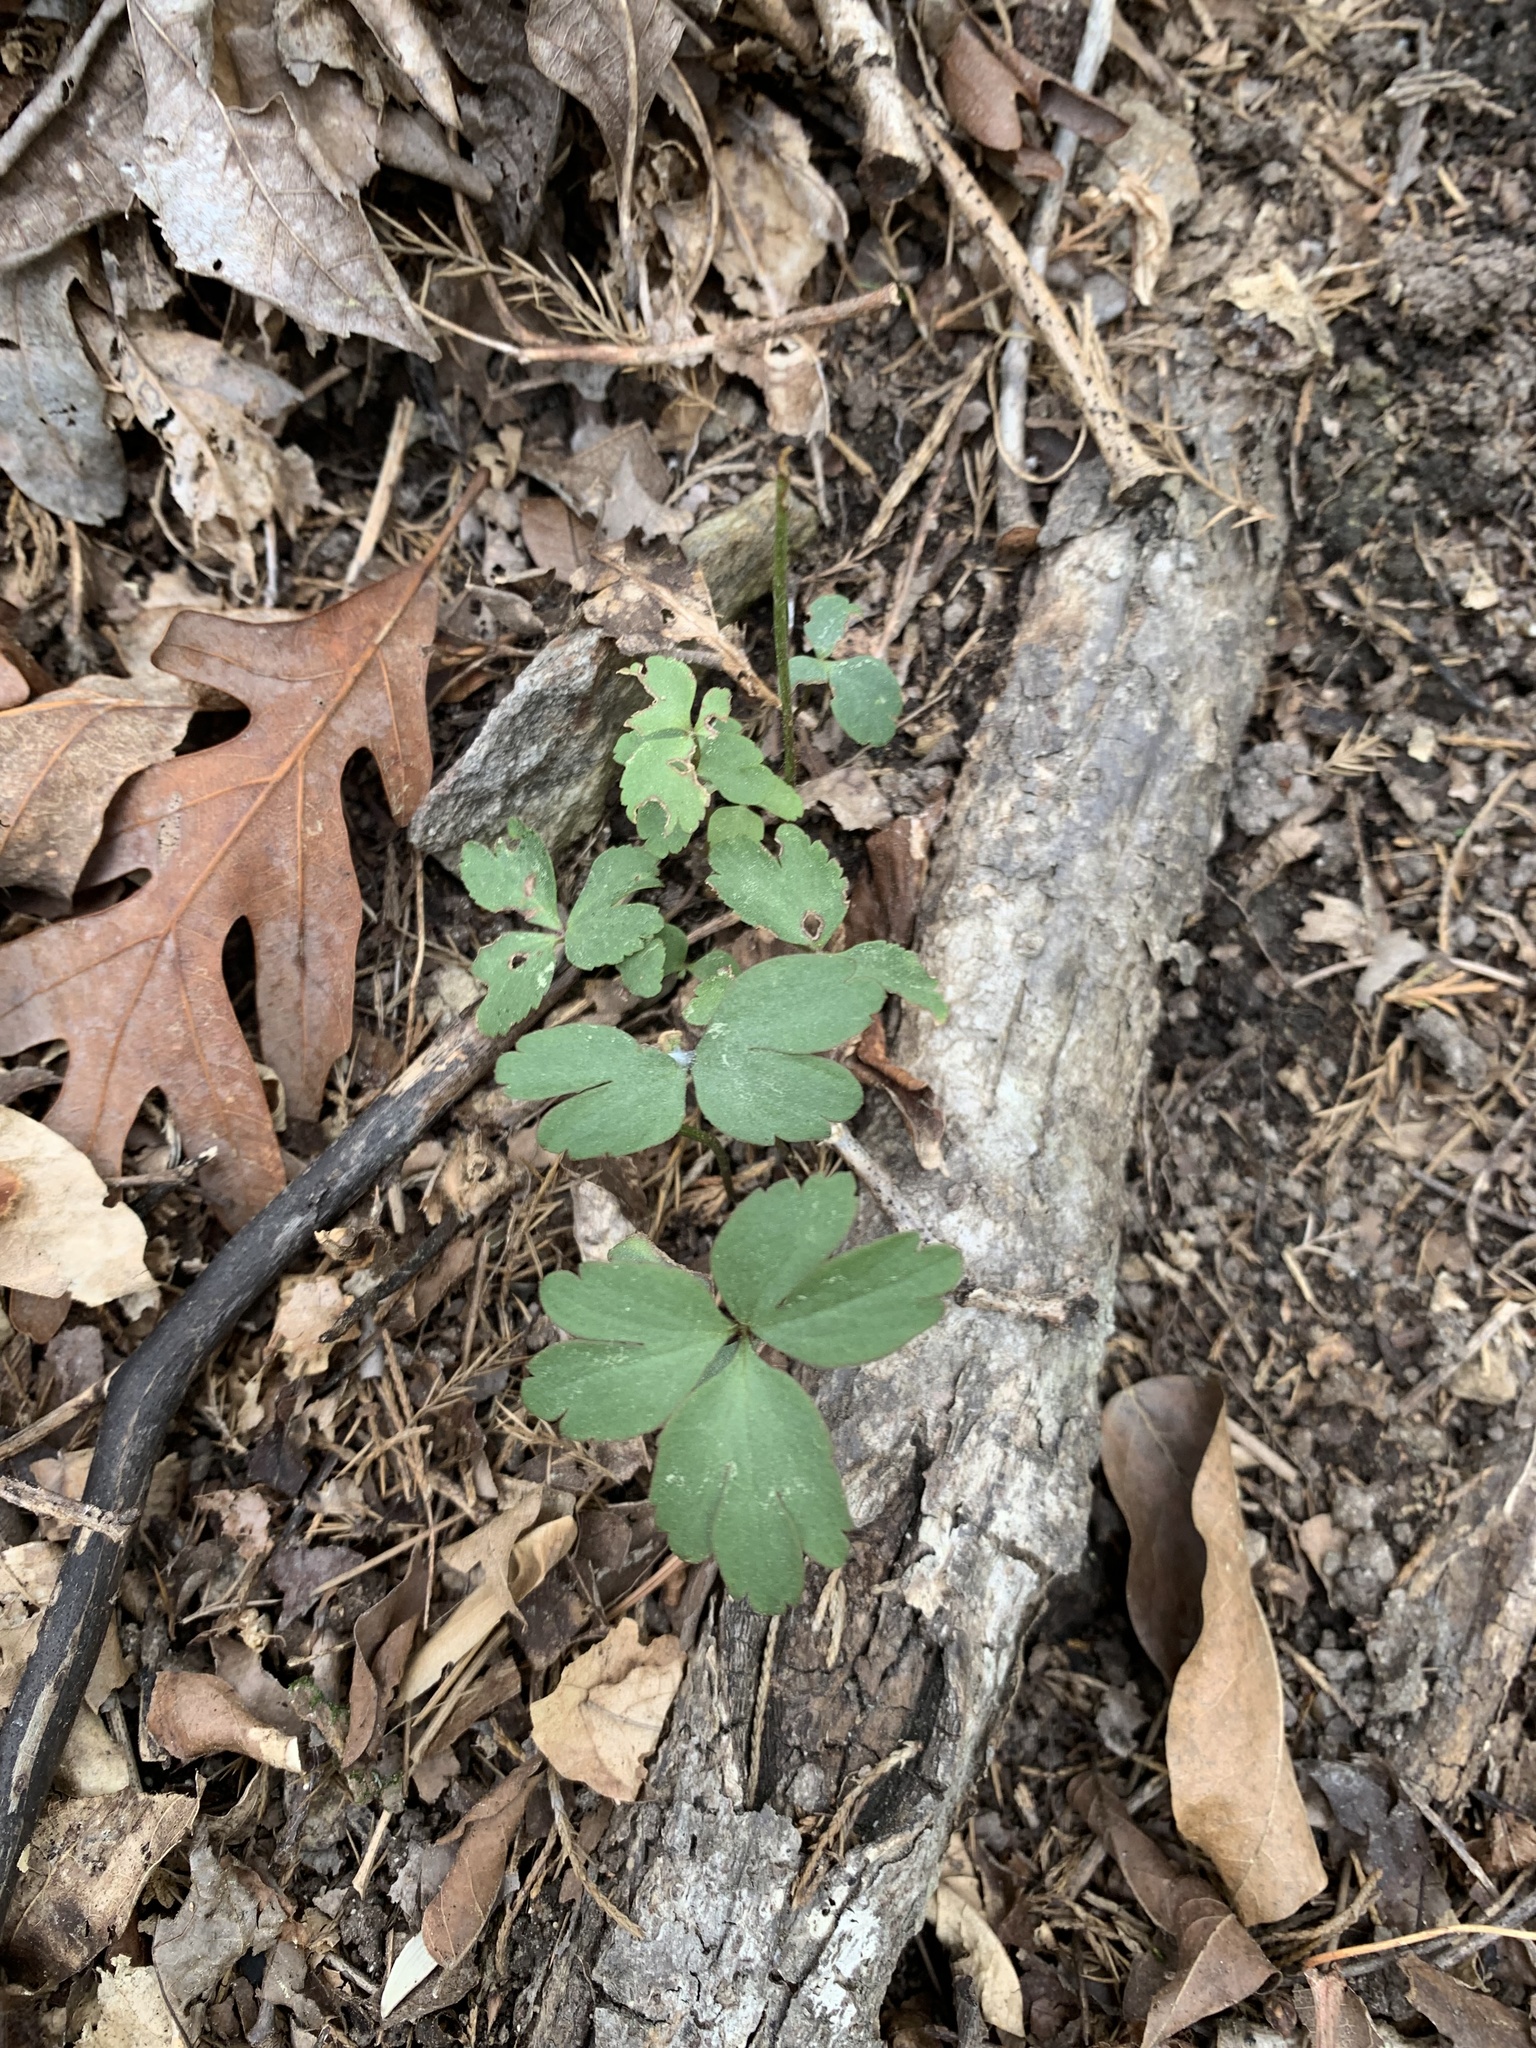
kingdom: Plantae
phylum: Tracheophyta
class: Magnoliopsida
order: Ranunculales
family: Ranunculaceae
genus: Anemone
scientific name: Anemone berlandieri
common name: Ten-petal anemone
